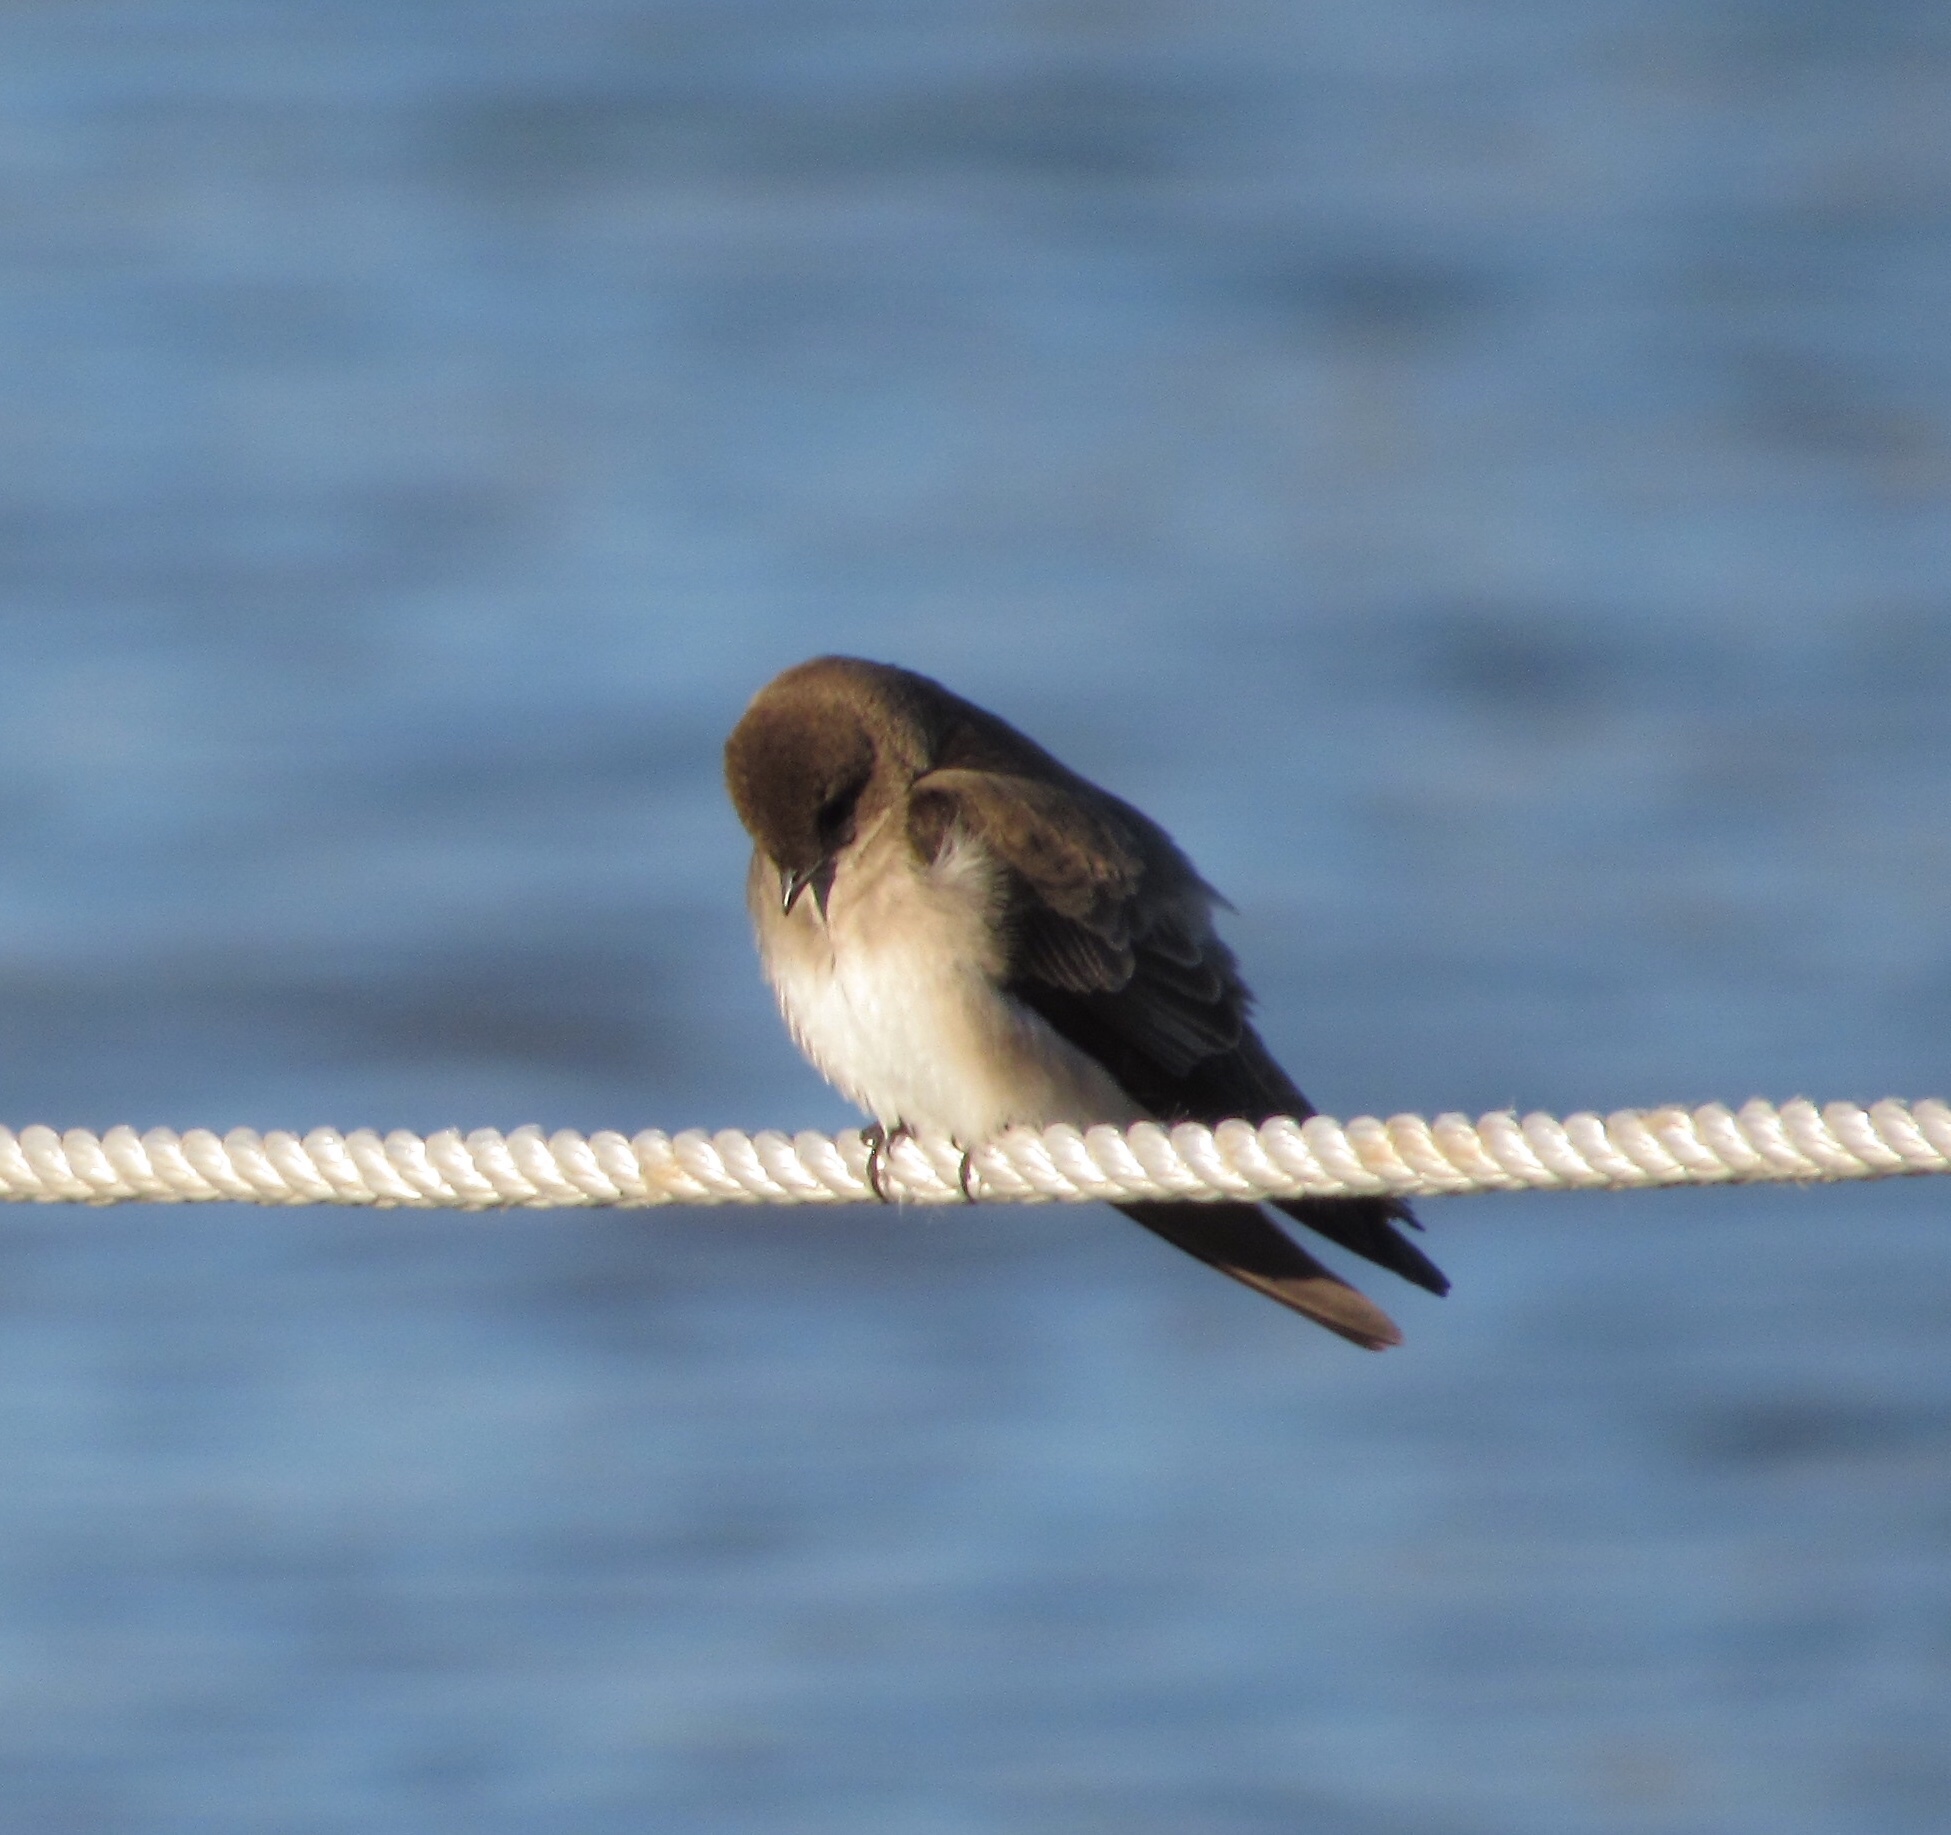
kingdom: Animalia
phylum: Chordata
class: Aves
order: Passeriformes
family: Hirundinidae
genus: Stelgidopteryx
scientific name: Stelgidopteryx serripennis
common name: Northern rough-winged swallow
